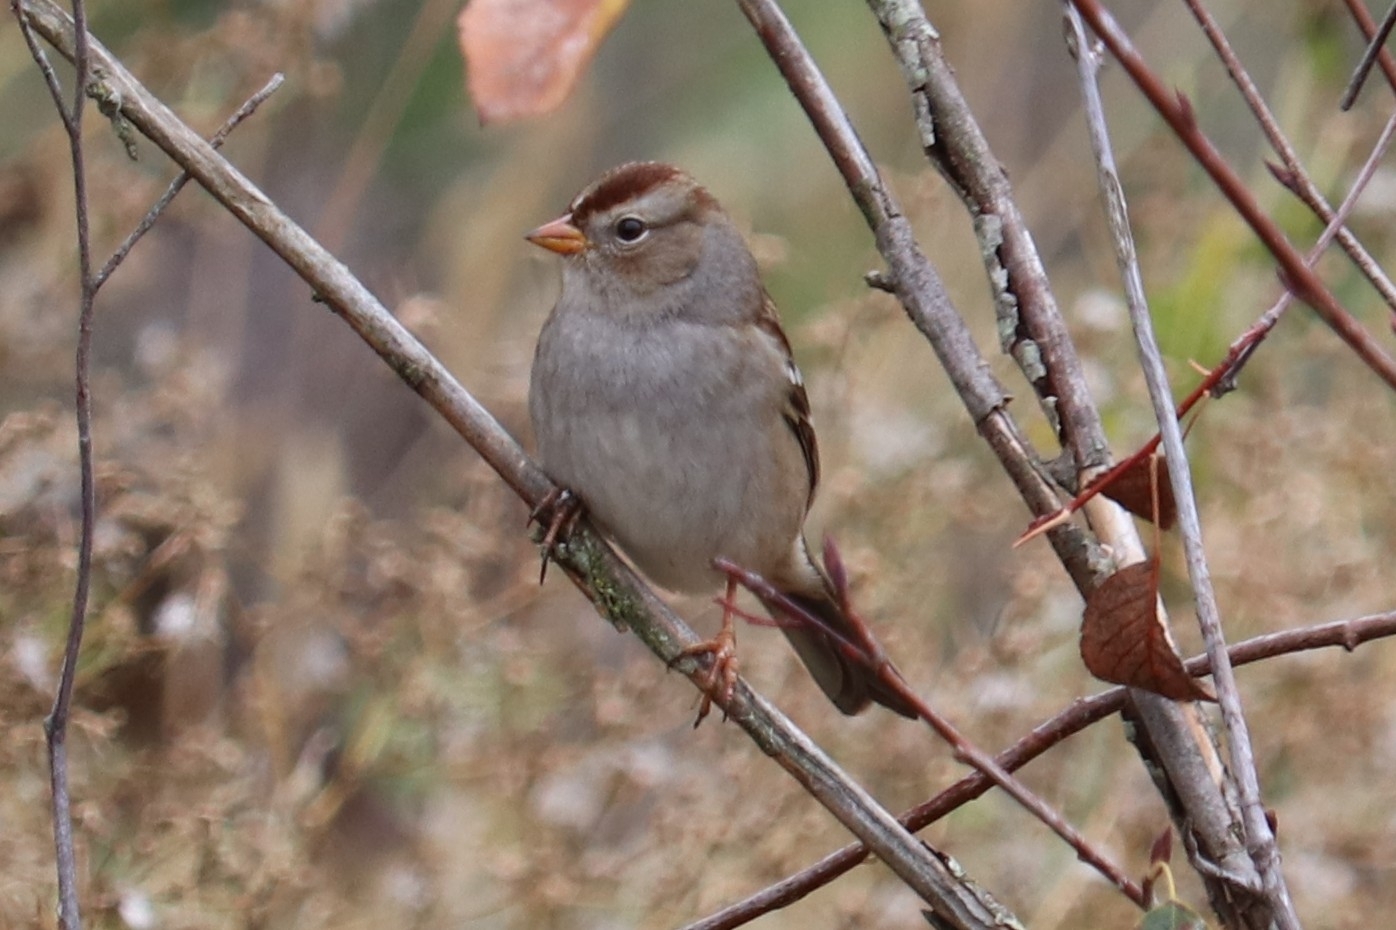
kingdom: Animalia
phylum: Chordata
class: Aves
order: Passeriformes
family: Passerellidae
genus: Zonotrichia
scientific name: Zonotrichia leucophrys
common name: White-crowned sparrow
